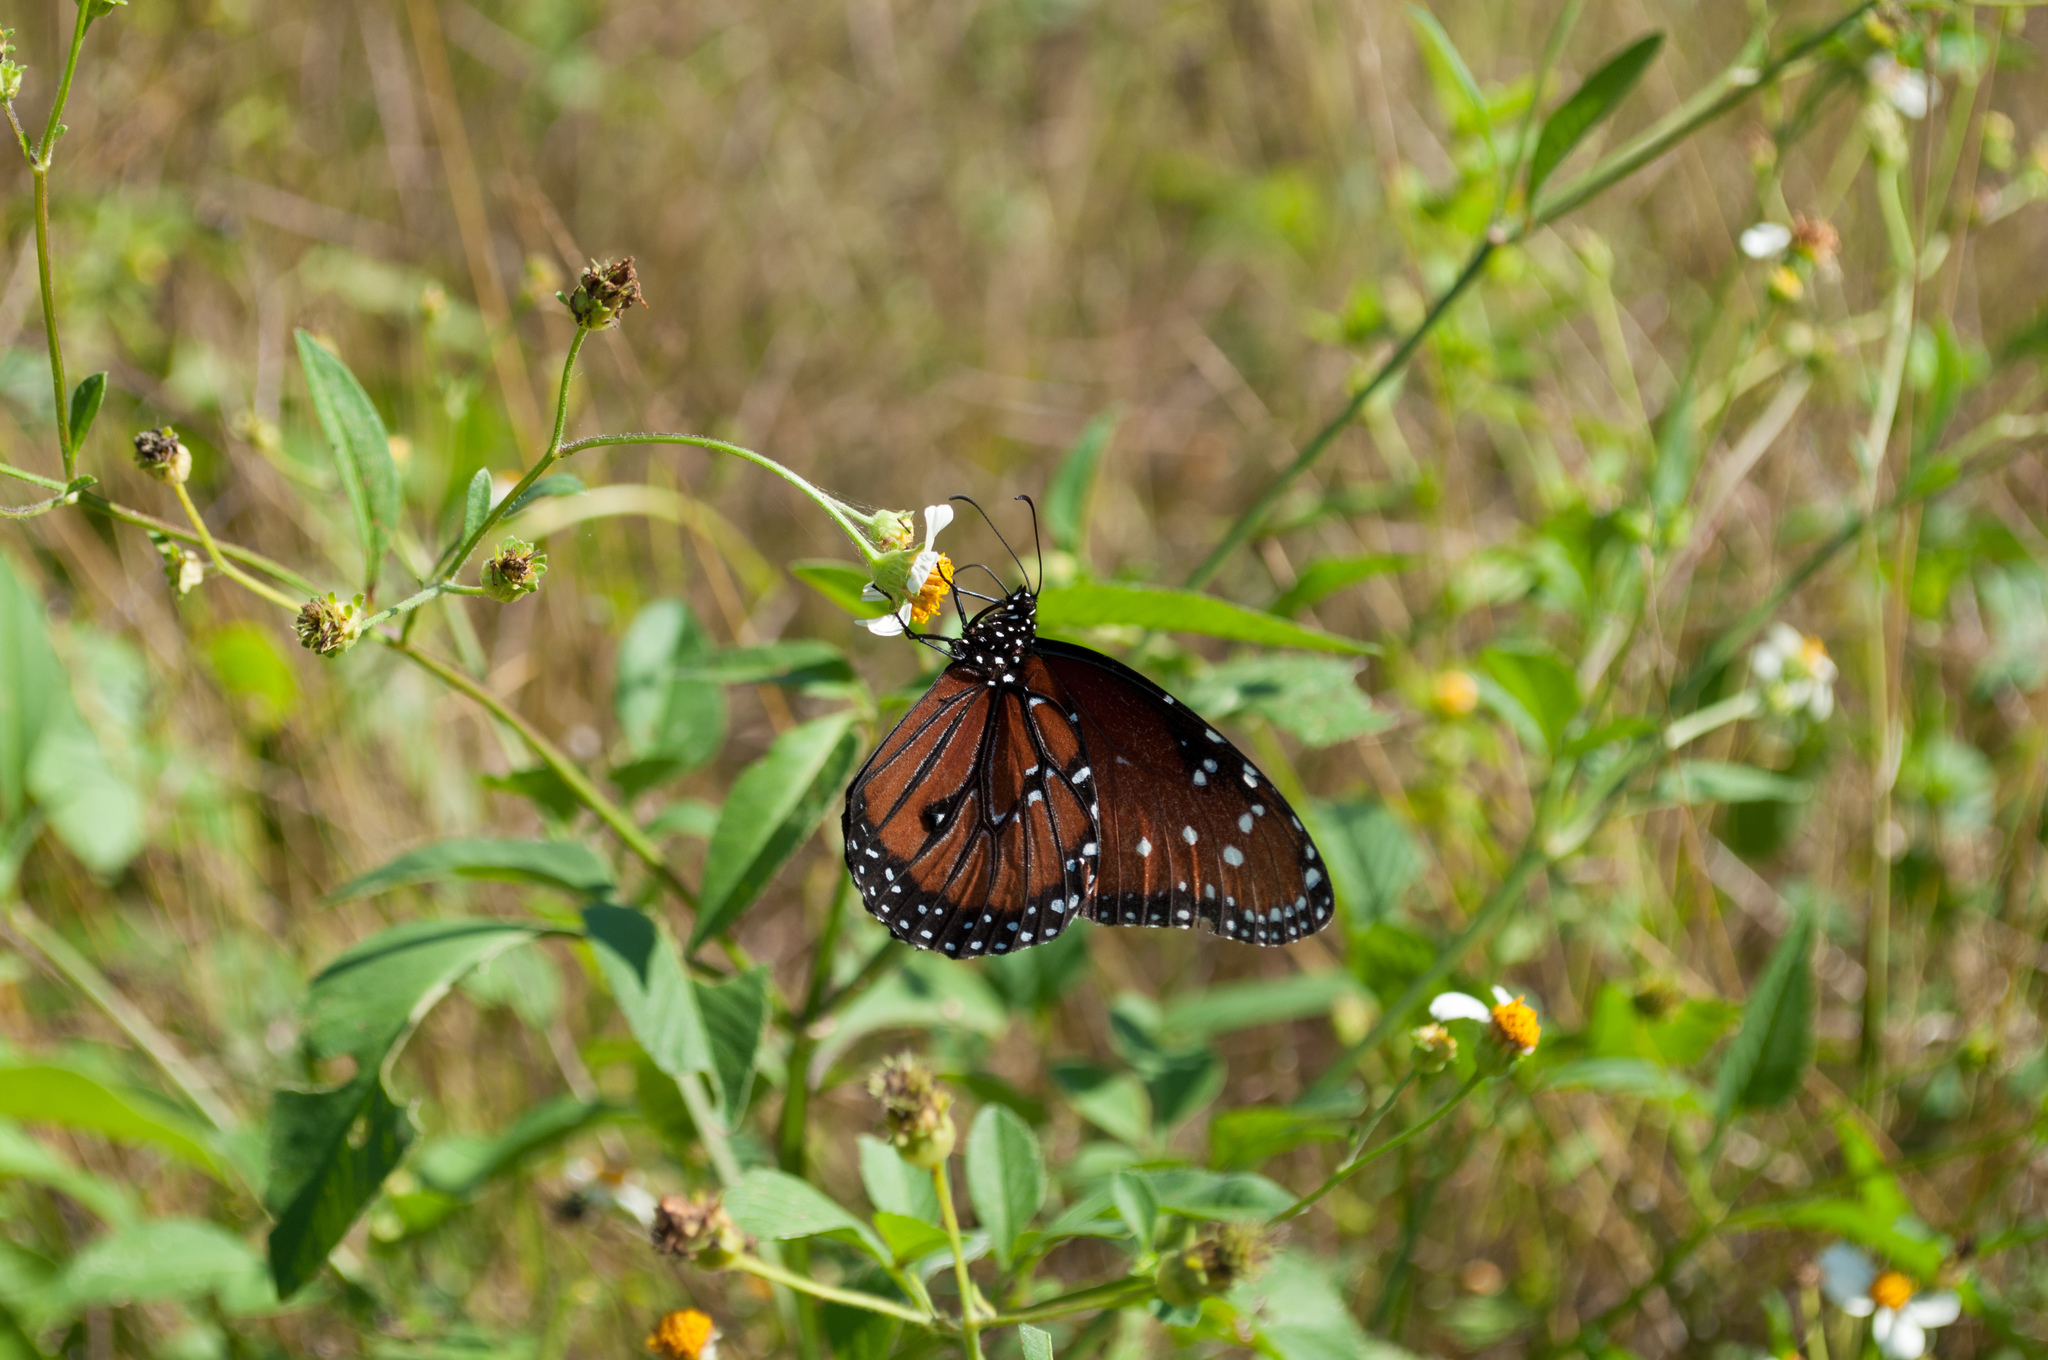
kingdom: Animalia
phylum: Arthropoda
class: Insecta
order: Lepidoptera
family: Nymphalidae
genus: Danaus
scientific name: Danaus gilippus
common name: Queen
